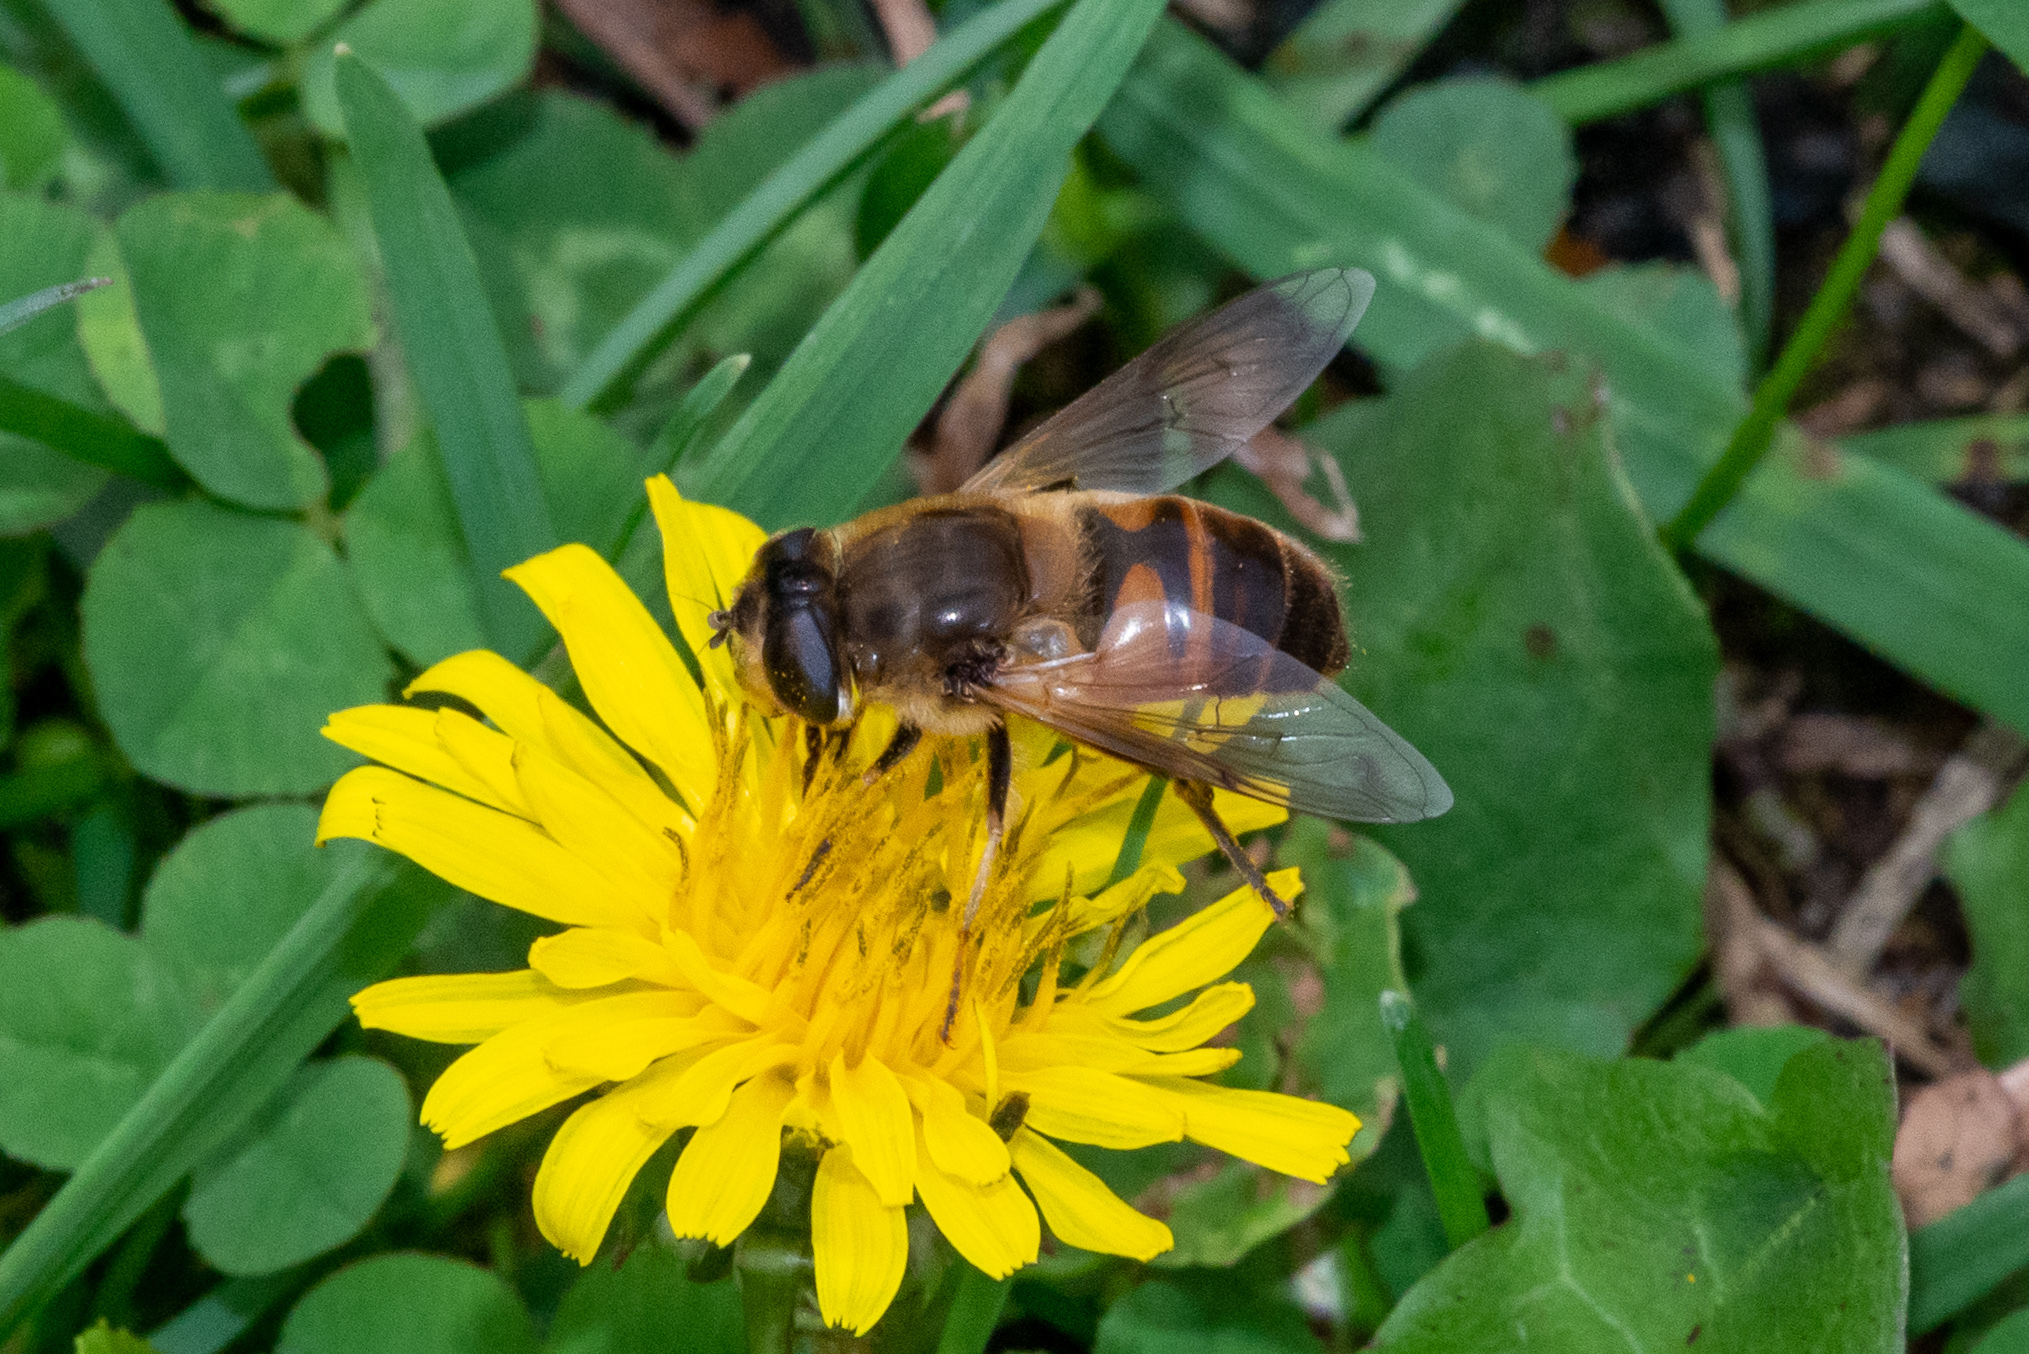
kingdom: Animalia
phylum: Arthropoda
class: Insecta
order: Diptera
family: Syrphidae
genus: Eristalis
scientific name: Eristalis tenax
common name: Drone fly
